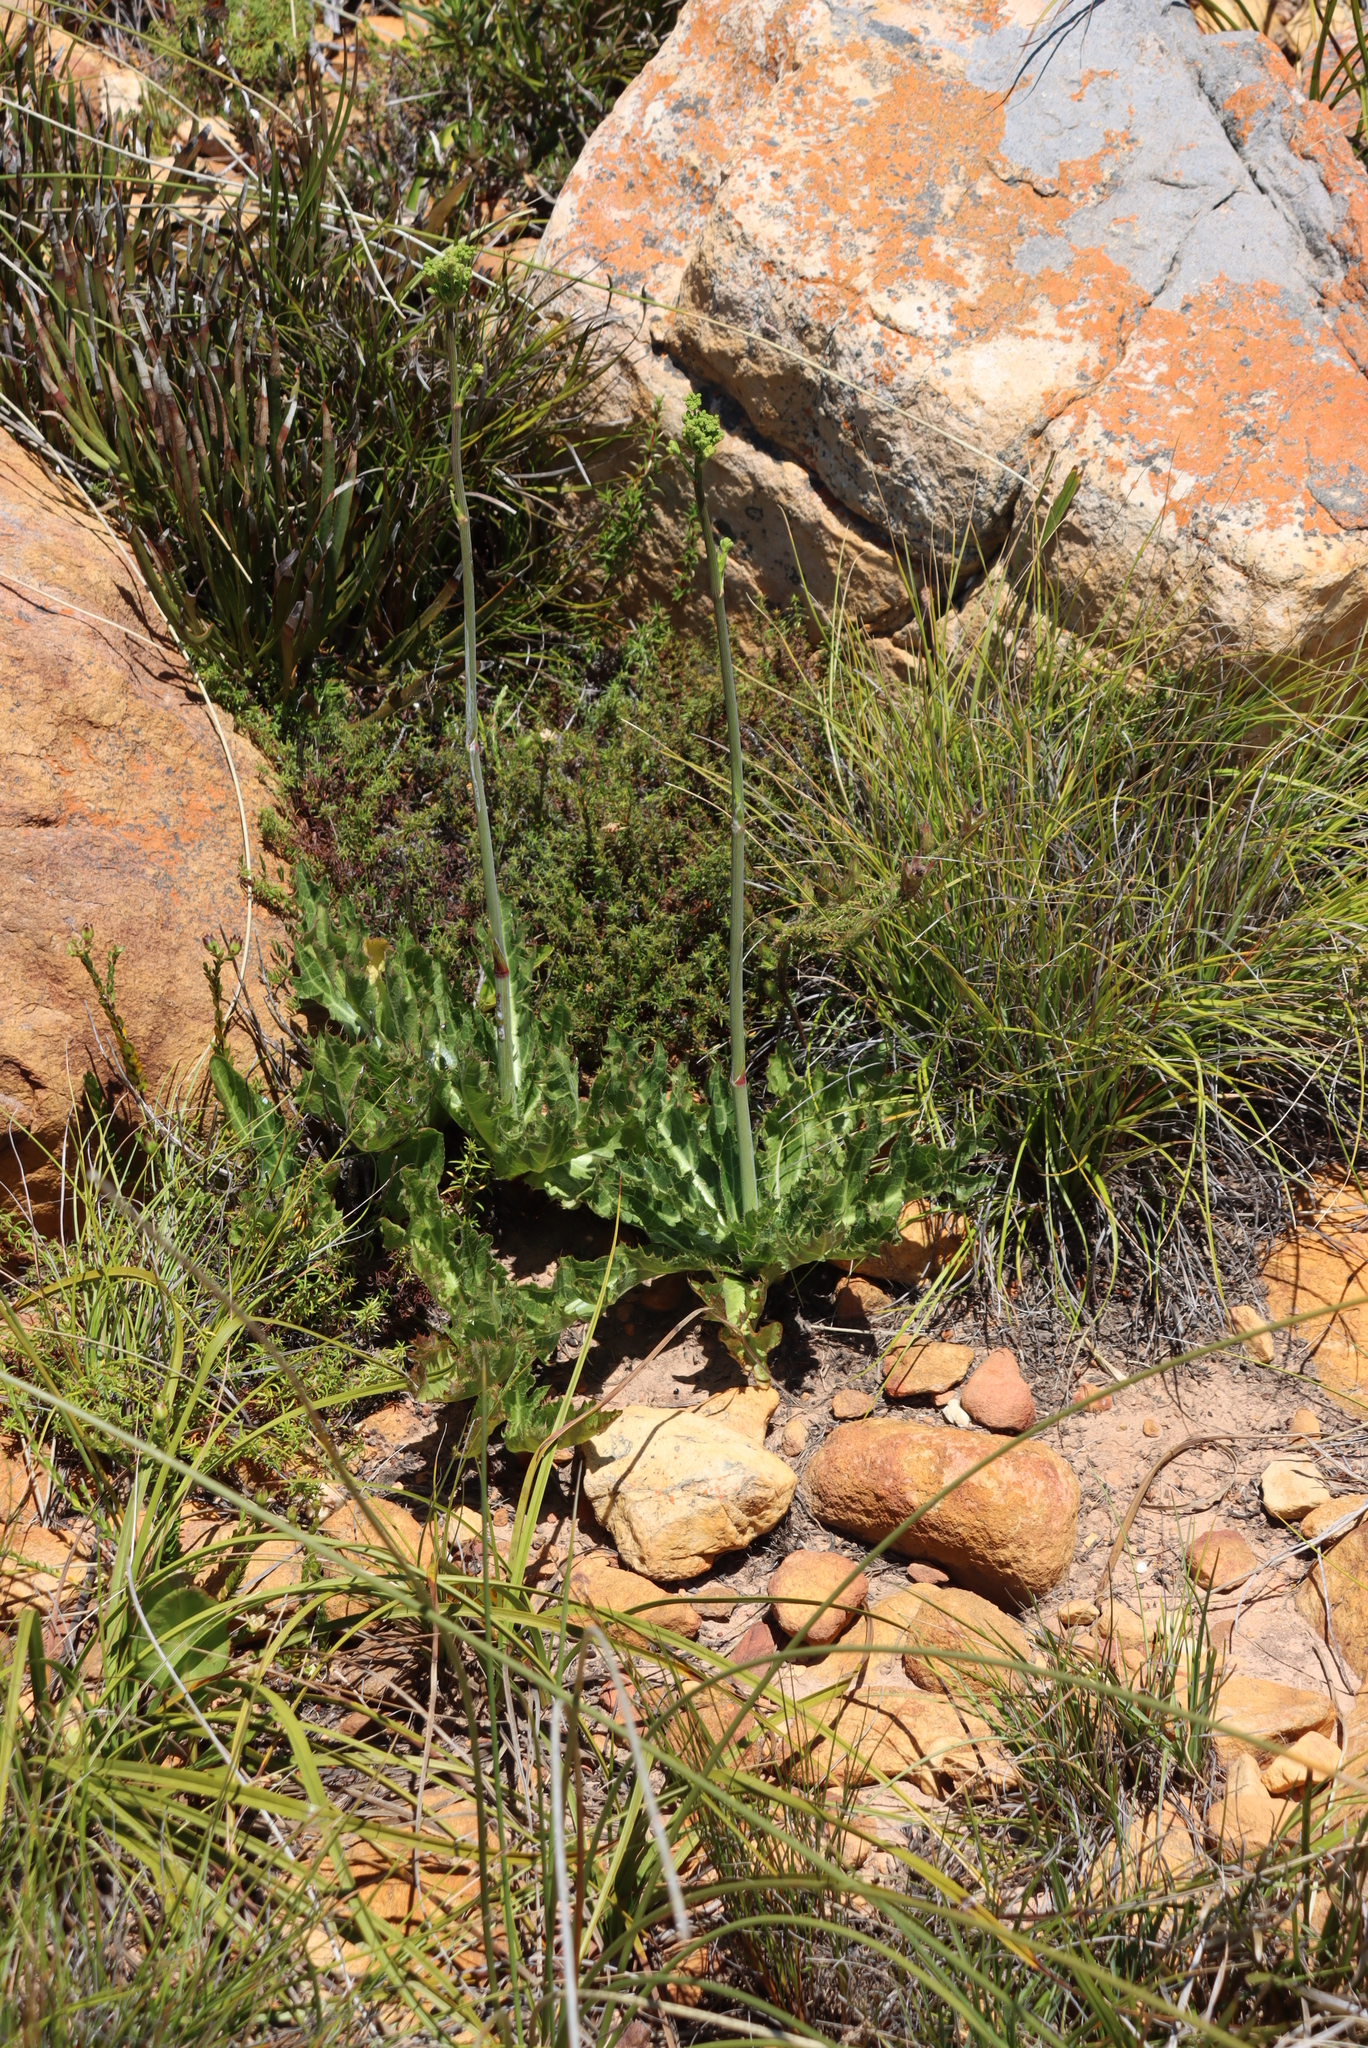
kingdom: Plantae
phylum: Tracheophyta
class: Magnoliopsida
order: Apiales
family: Apiaceae
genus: Lichtensteinia
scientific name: Lichtensteinia lacera
